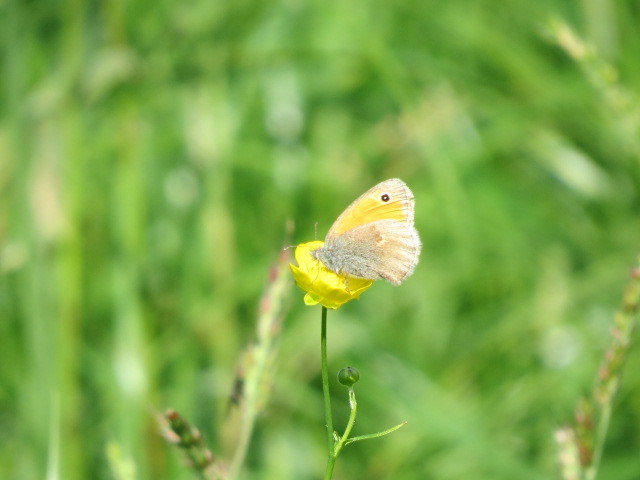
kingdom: Animalia
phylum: Arthropoda
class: Insecta
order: Lepidoptera
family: Nymphalidae
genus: Coenonympha
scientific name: Coenonympha pamphilus
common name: Small heath
